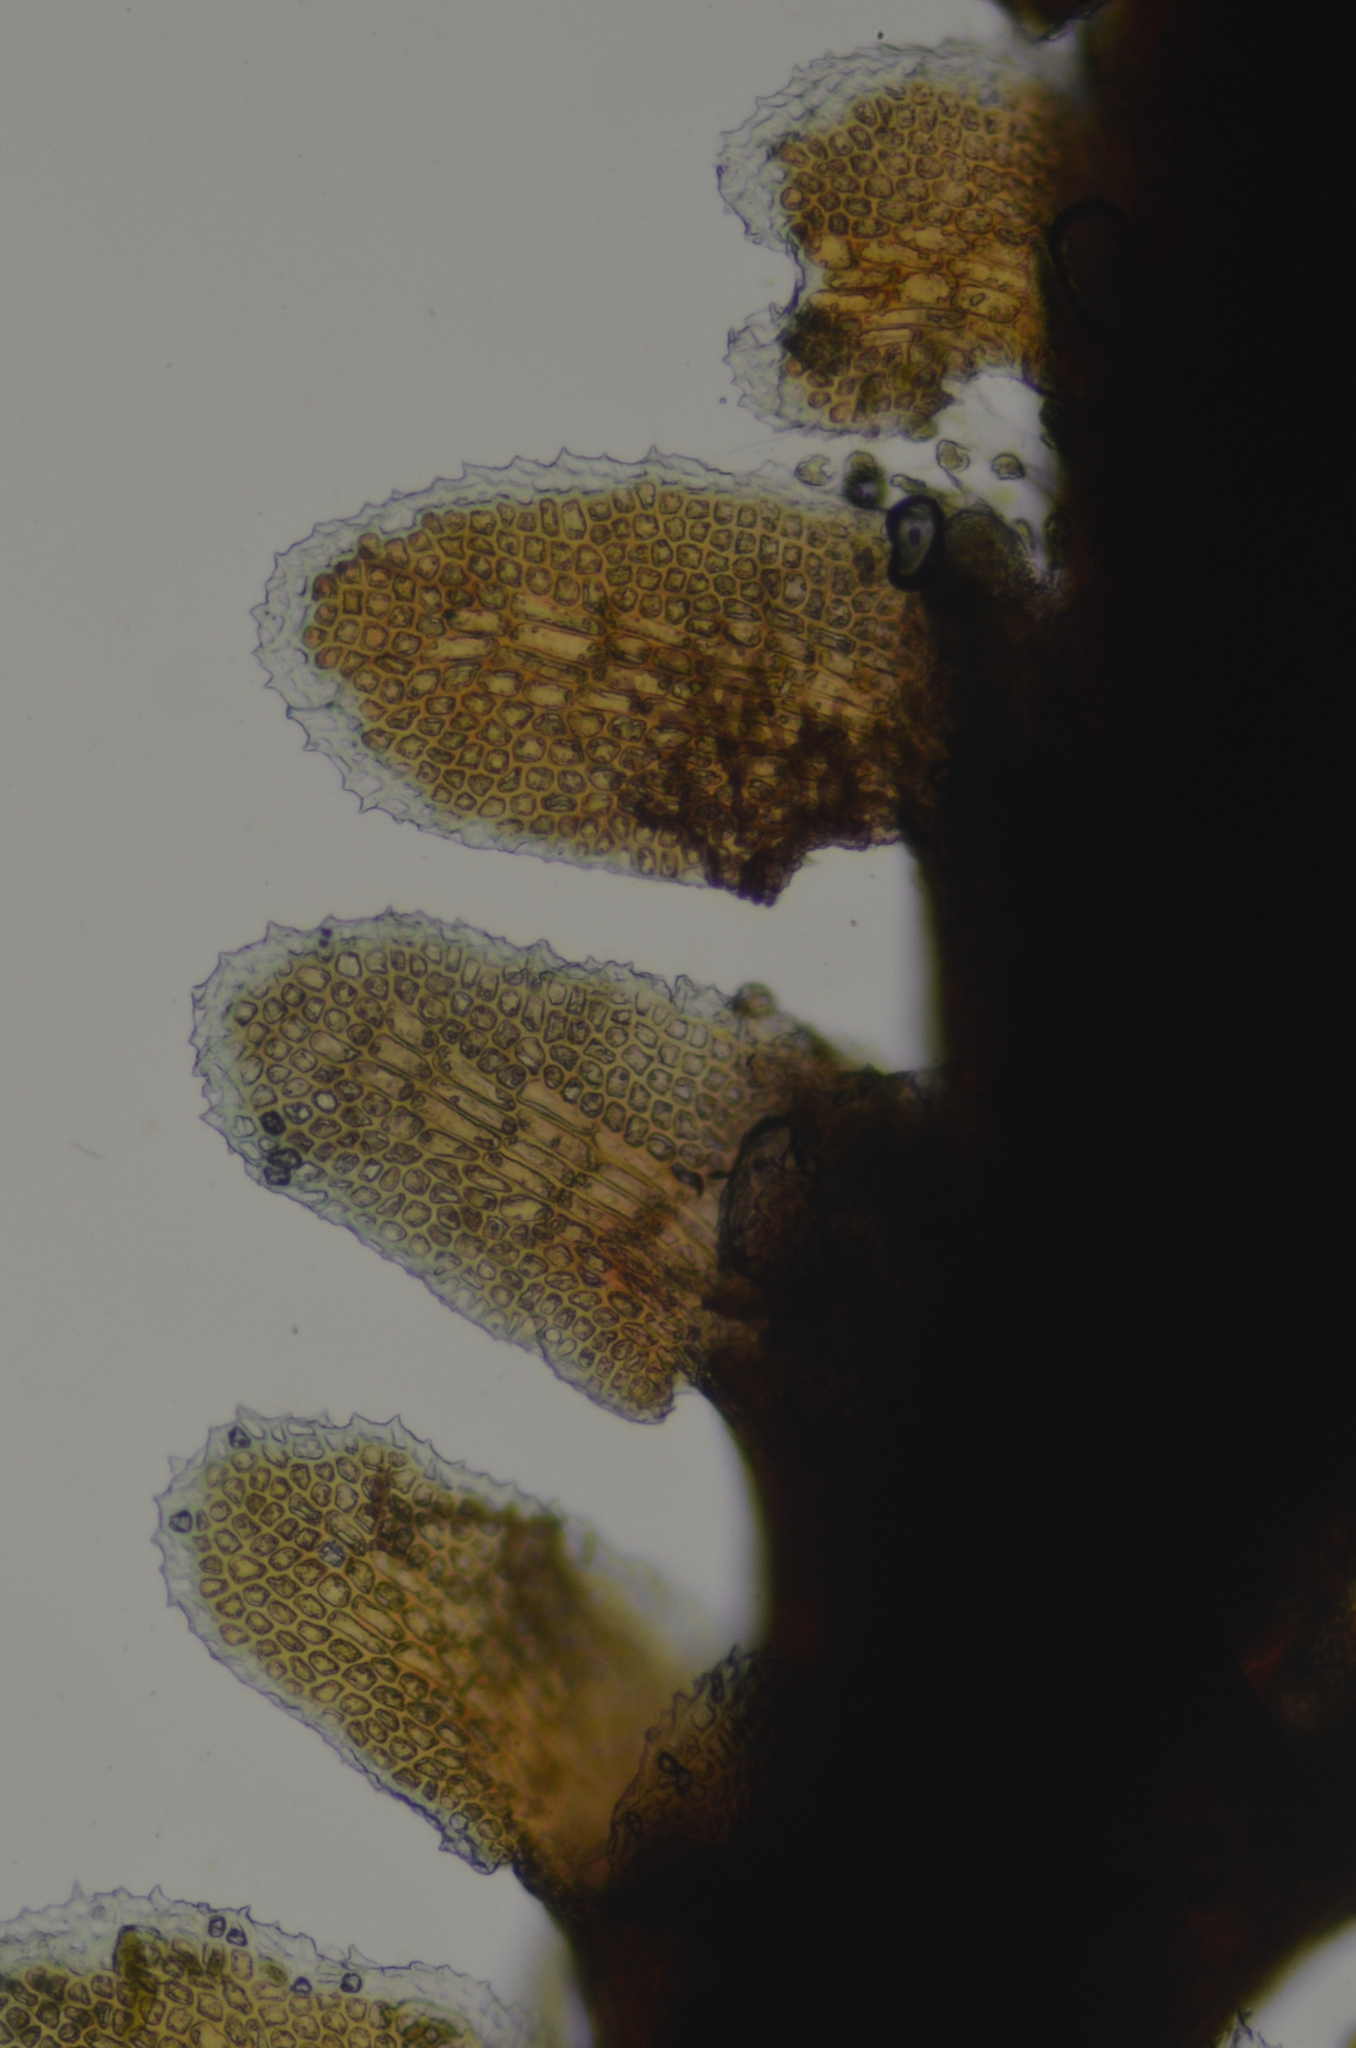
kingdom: Plantae
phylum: Marchantiophyta
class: Jungermanniopsida
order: Jungermanniales
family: Scapaniaceae
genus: Diplophyllum
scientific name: Diplophyllum albicans
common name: White earwort
